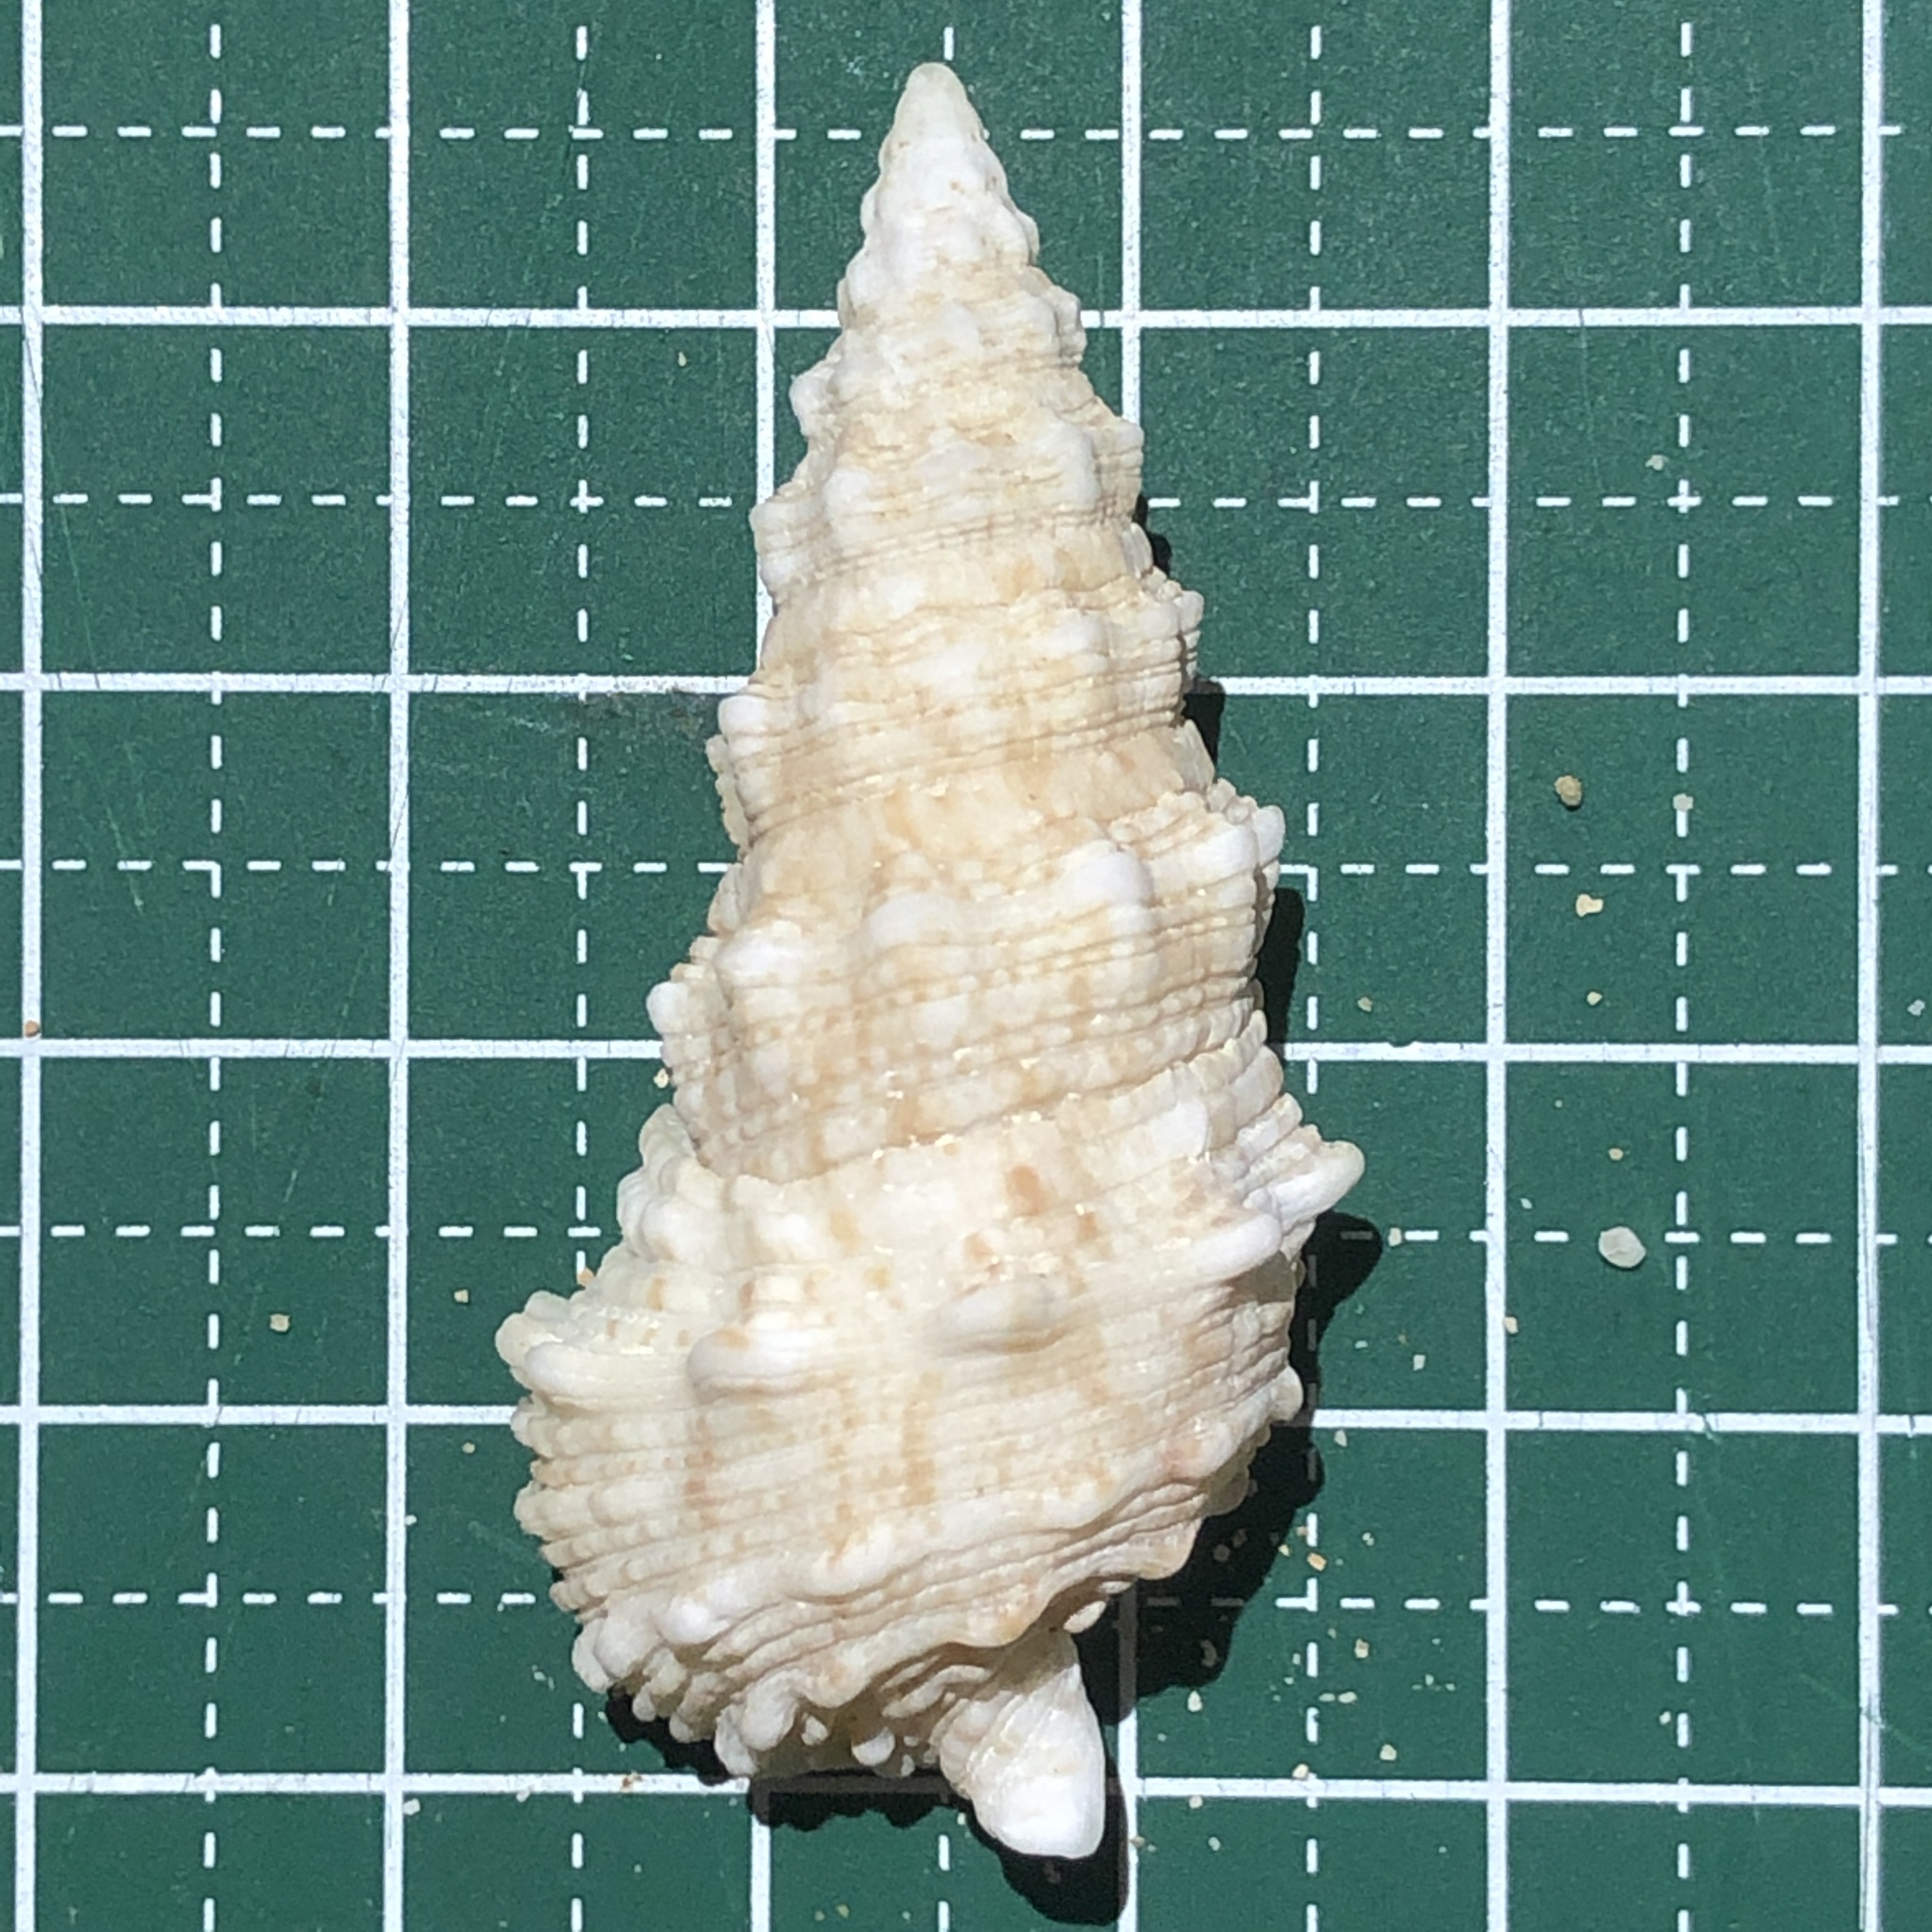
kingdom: Animalia
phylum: Mollusca
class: Gastropoda
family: Cerithiidae
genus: Cerithium
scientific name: Cerithium echinatum
